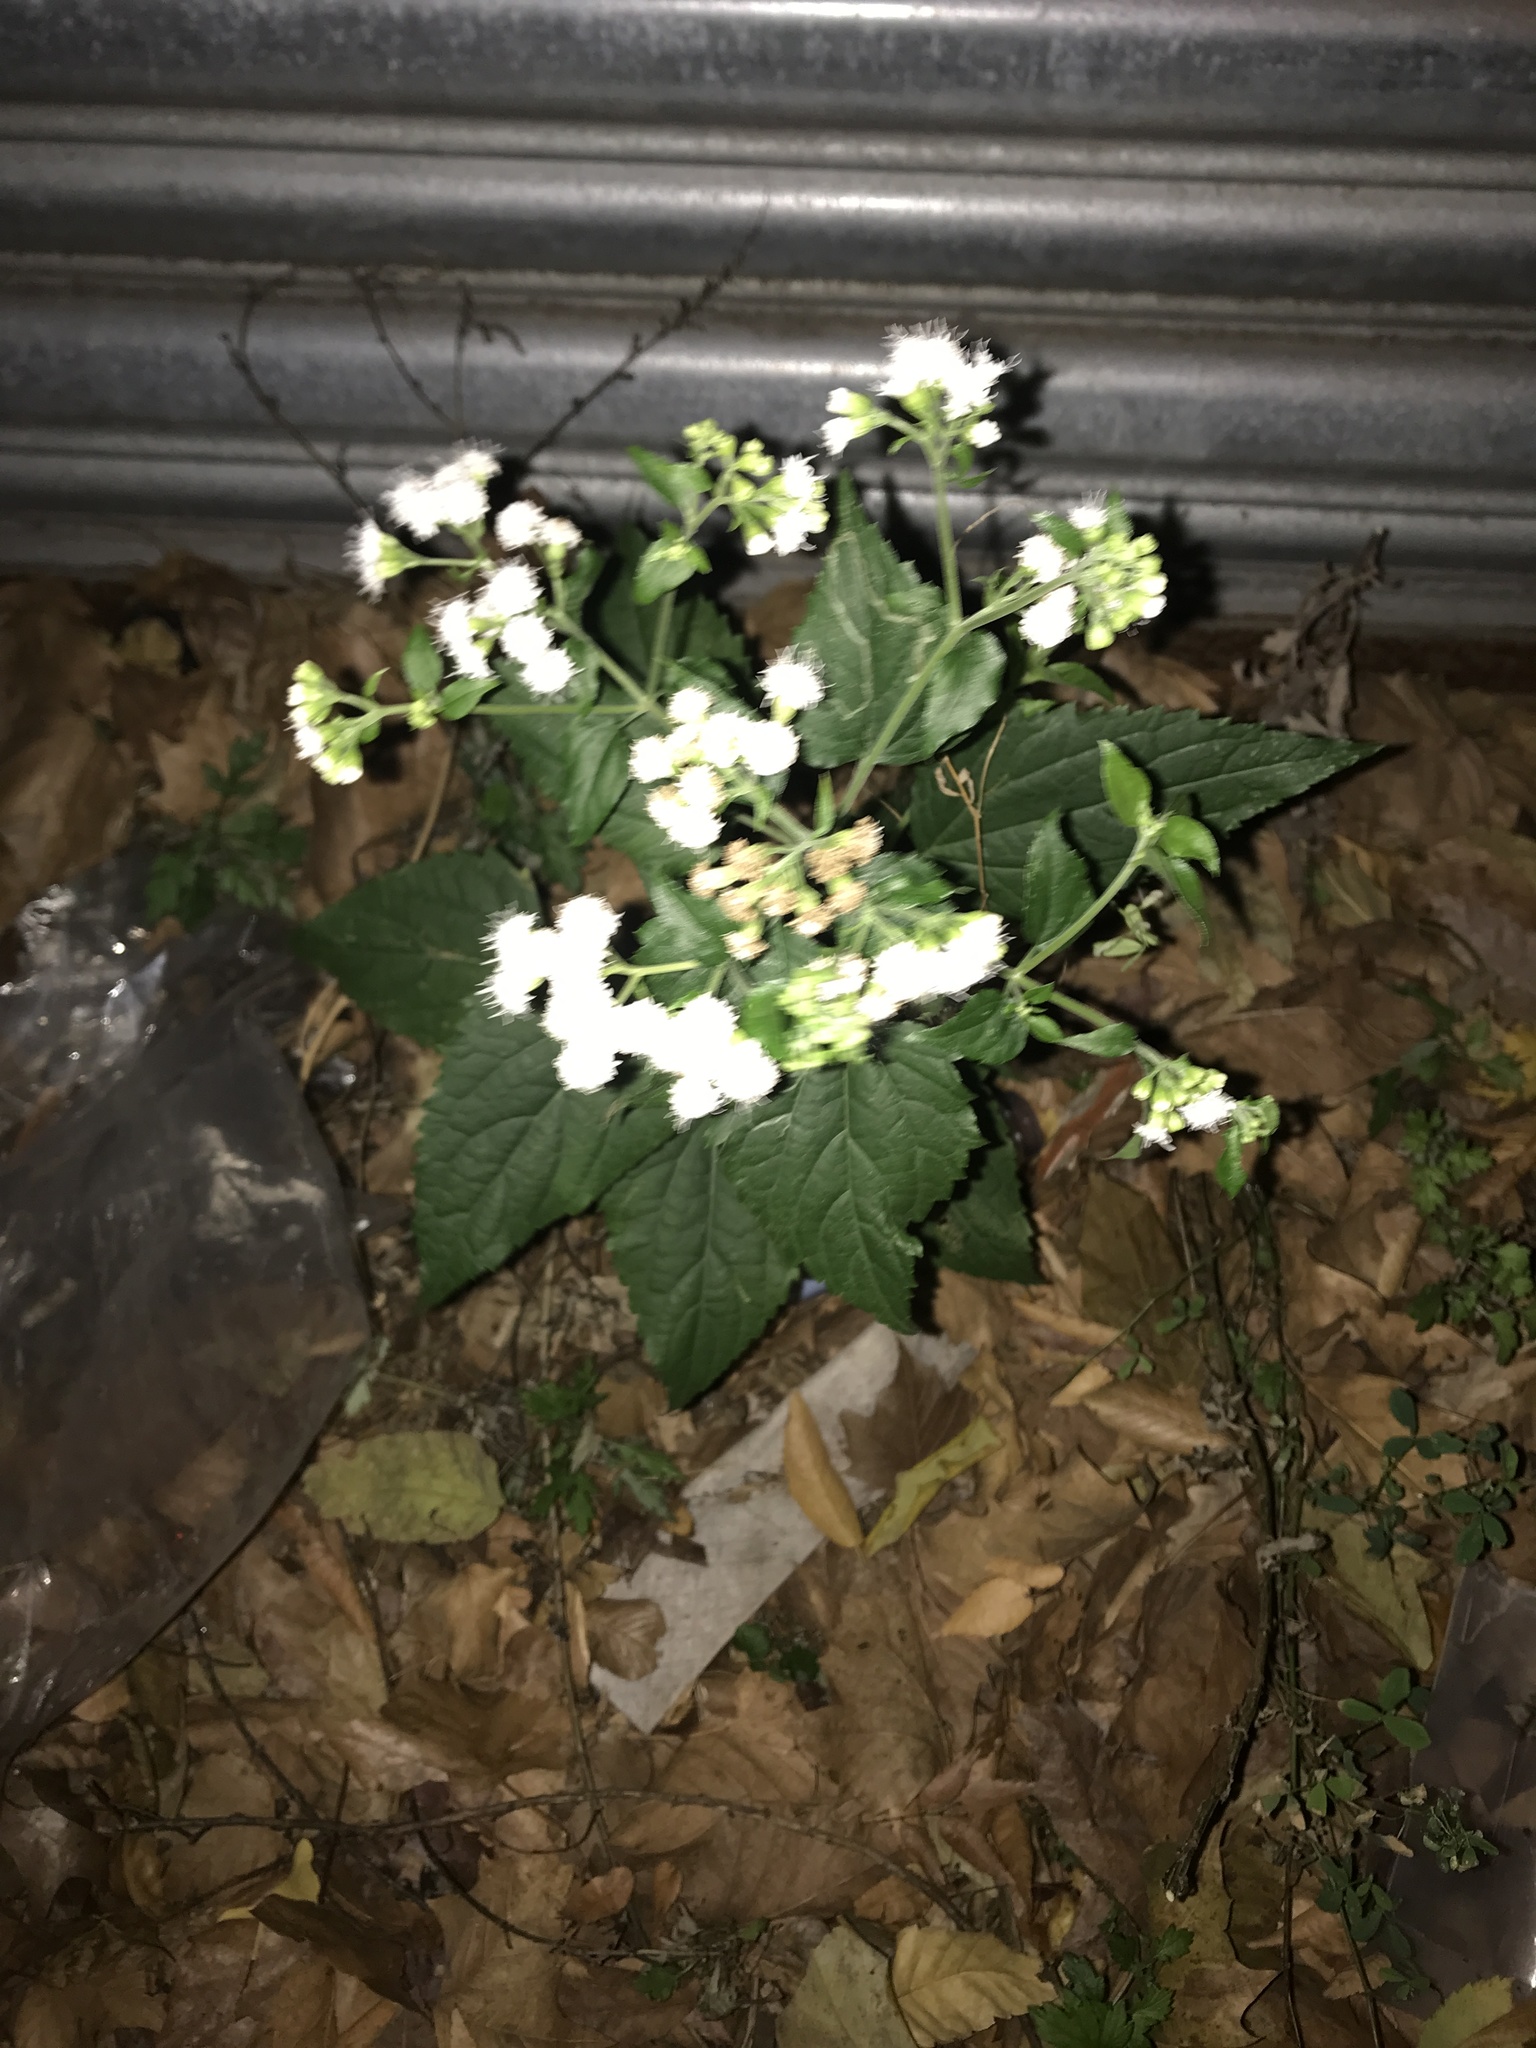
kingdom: Plantae
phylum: Tracheophyta
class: Magnoliopsida
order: Asterales
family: Asteraceae
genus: Ageratina
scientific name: Ageratina altissima
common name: White snakeroot
